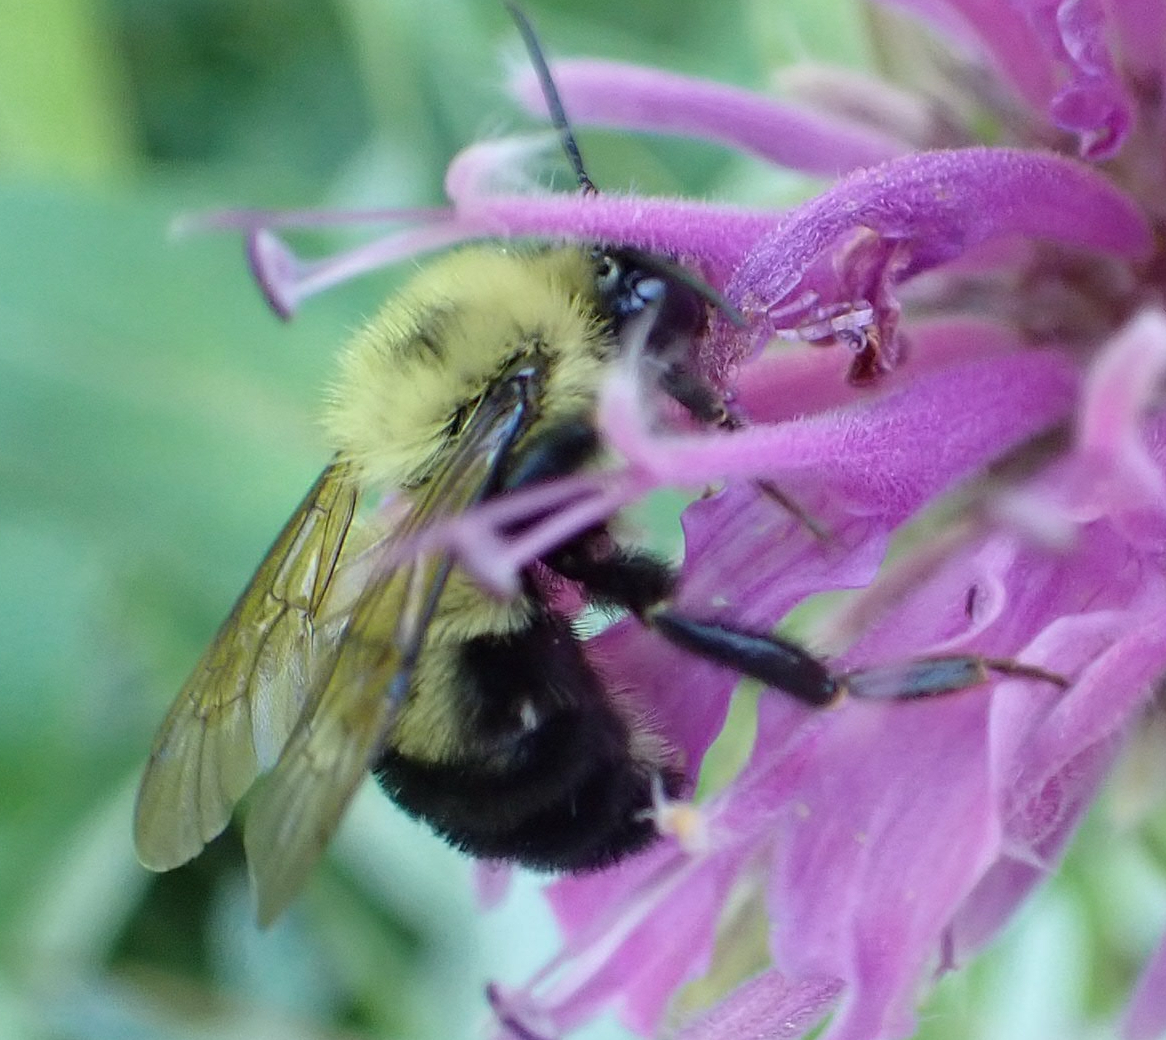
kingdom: Animalia
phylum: Arthropoda
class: Insecta
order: Hymenoptera
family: Apidae
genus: Bombus
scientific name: Bombus bimaculatus
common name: Two-spotted bumble bee
